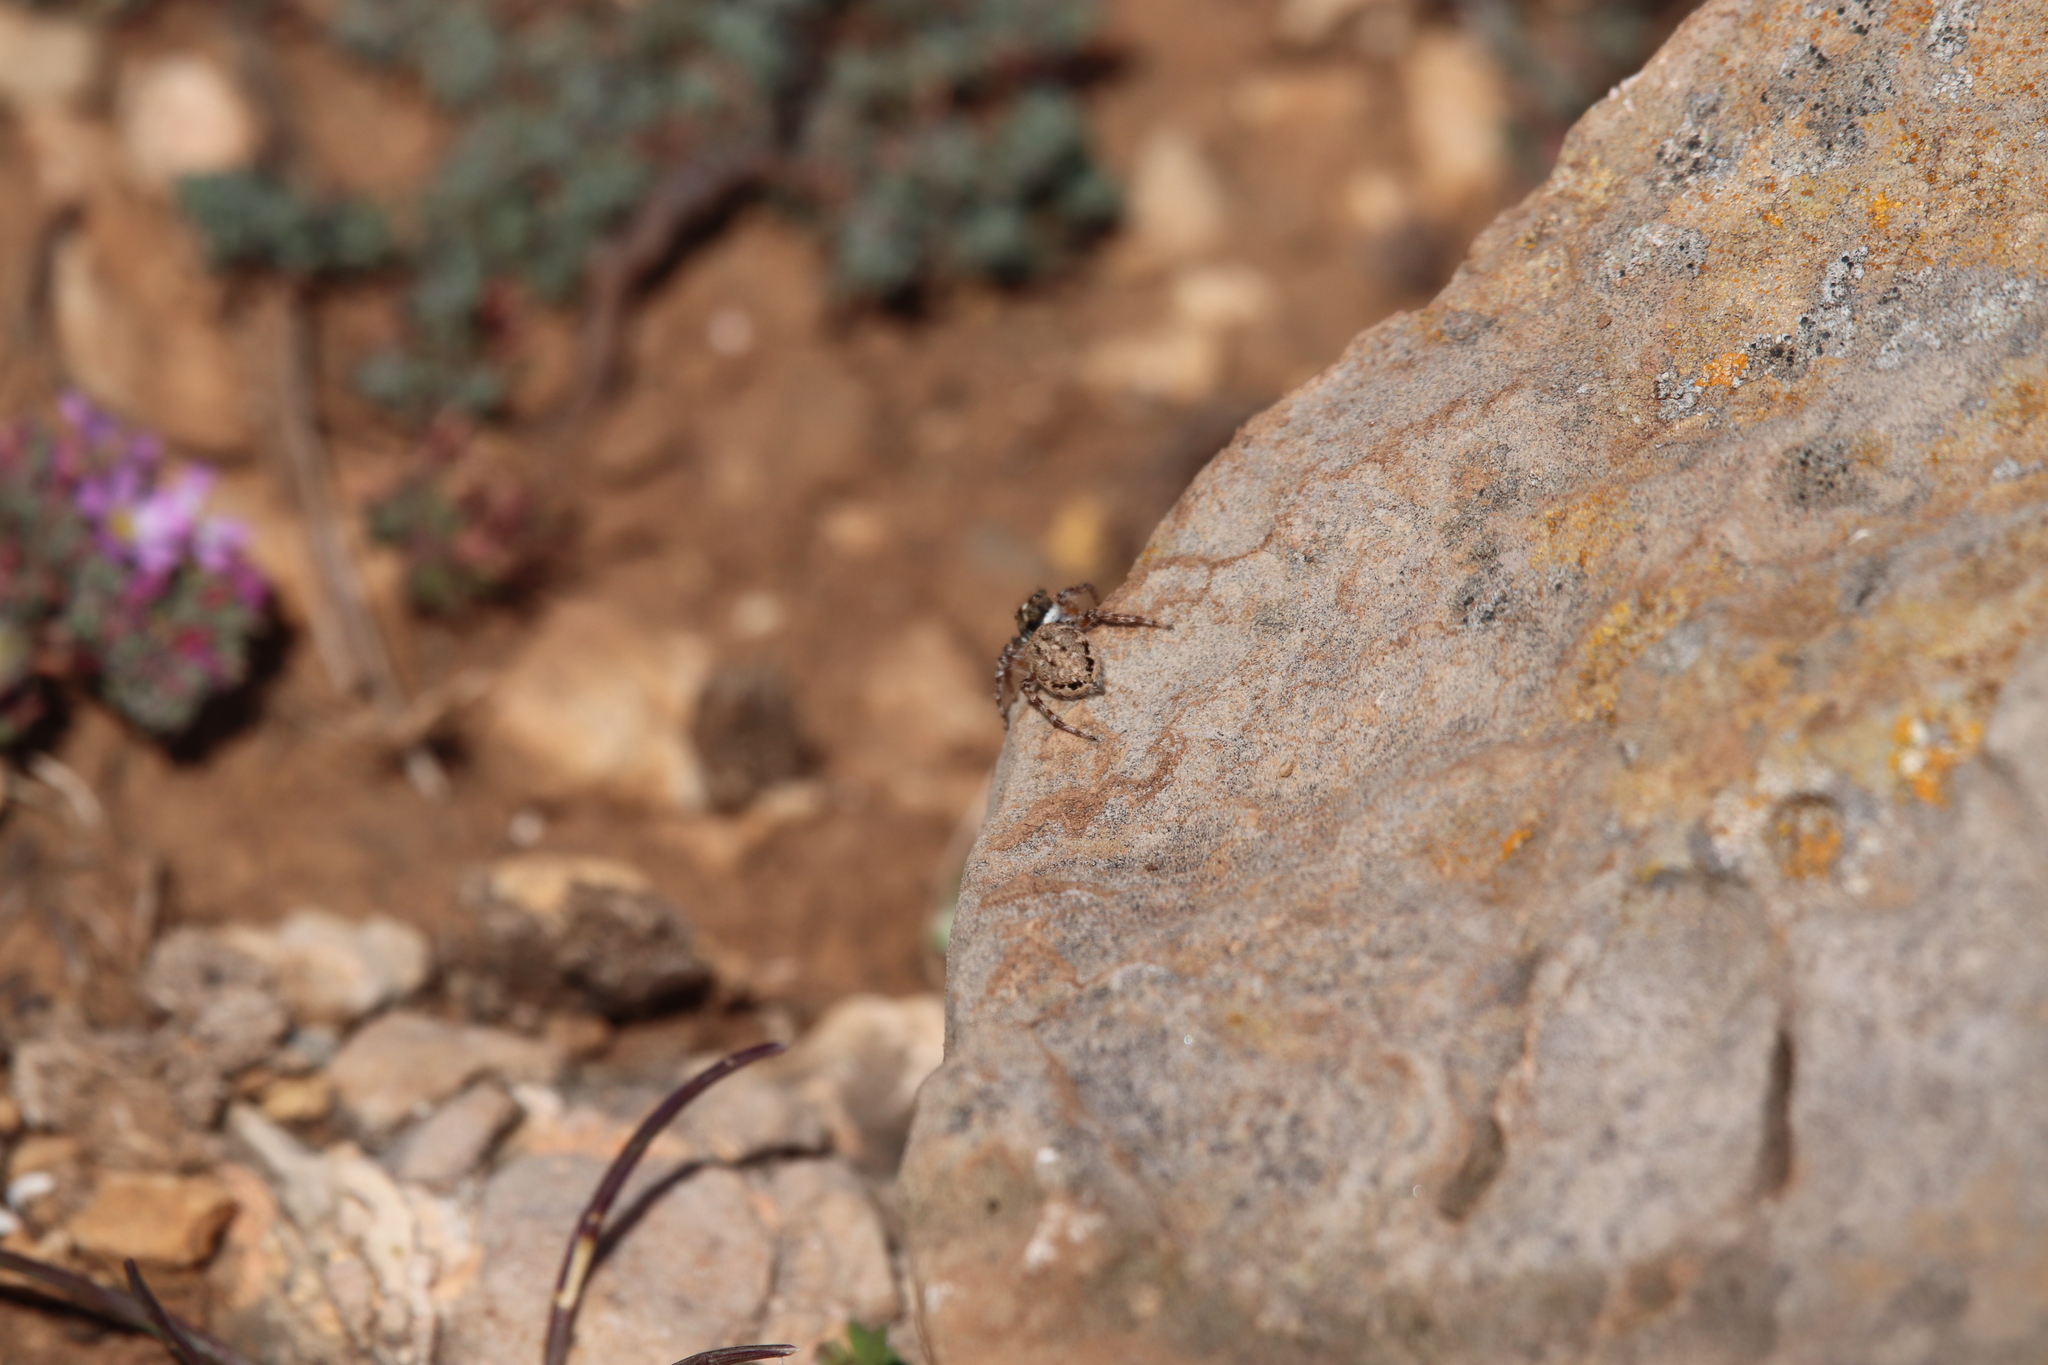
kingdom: Animalia
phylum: Arthropoda
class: Arachnida
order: Araneae
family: Salticidae
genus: Menemerus
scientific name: Menemerus semilimbatus
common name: Jumping spider
